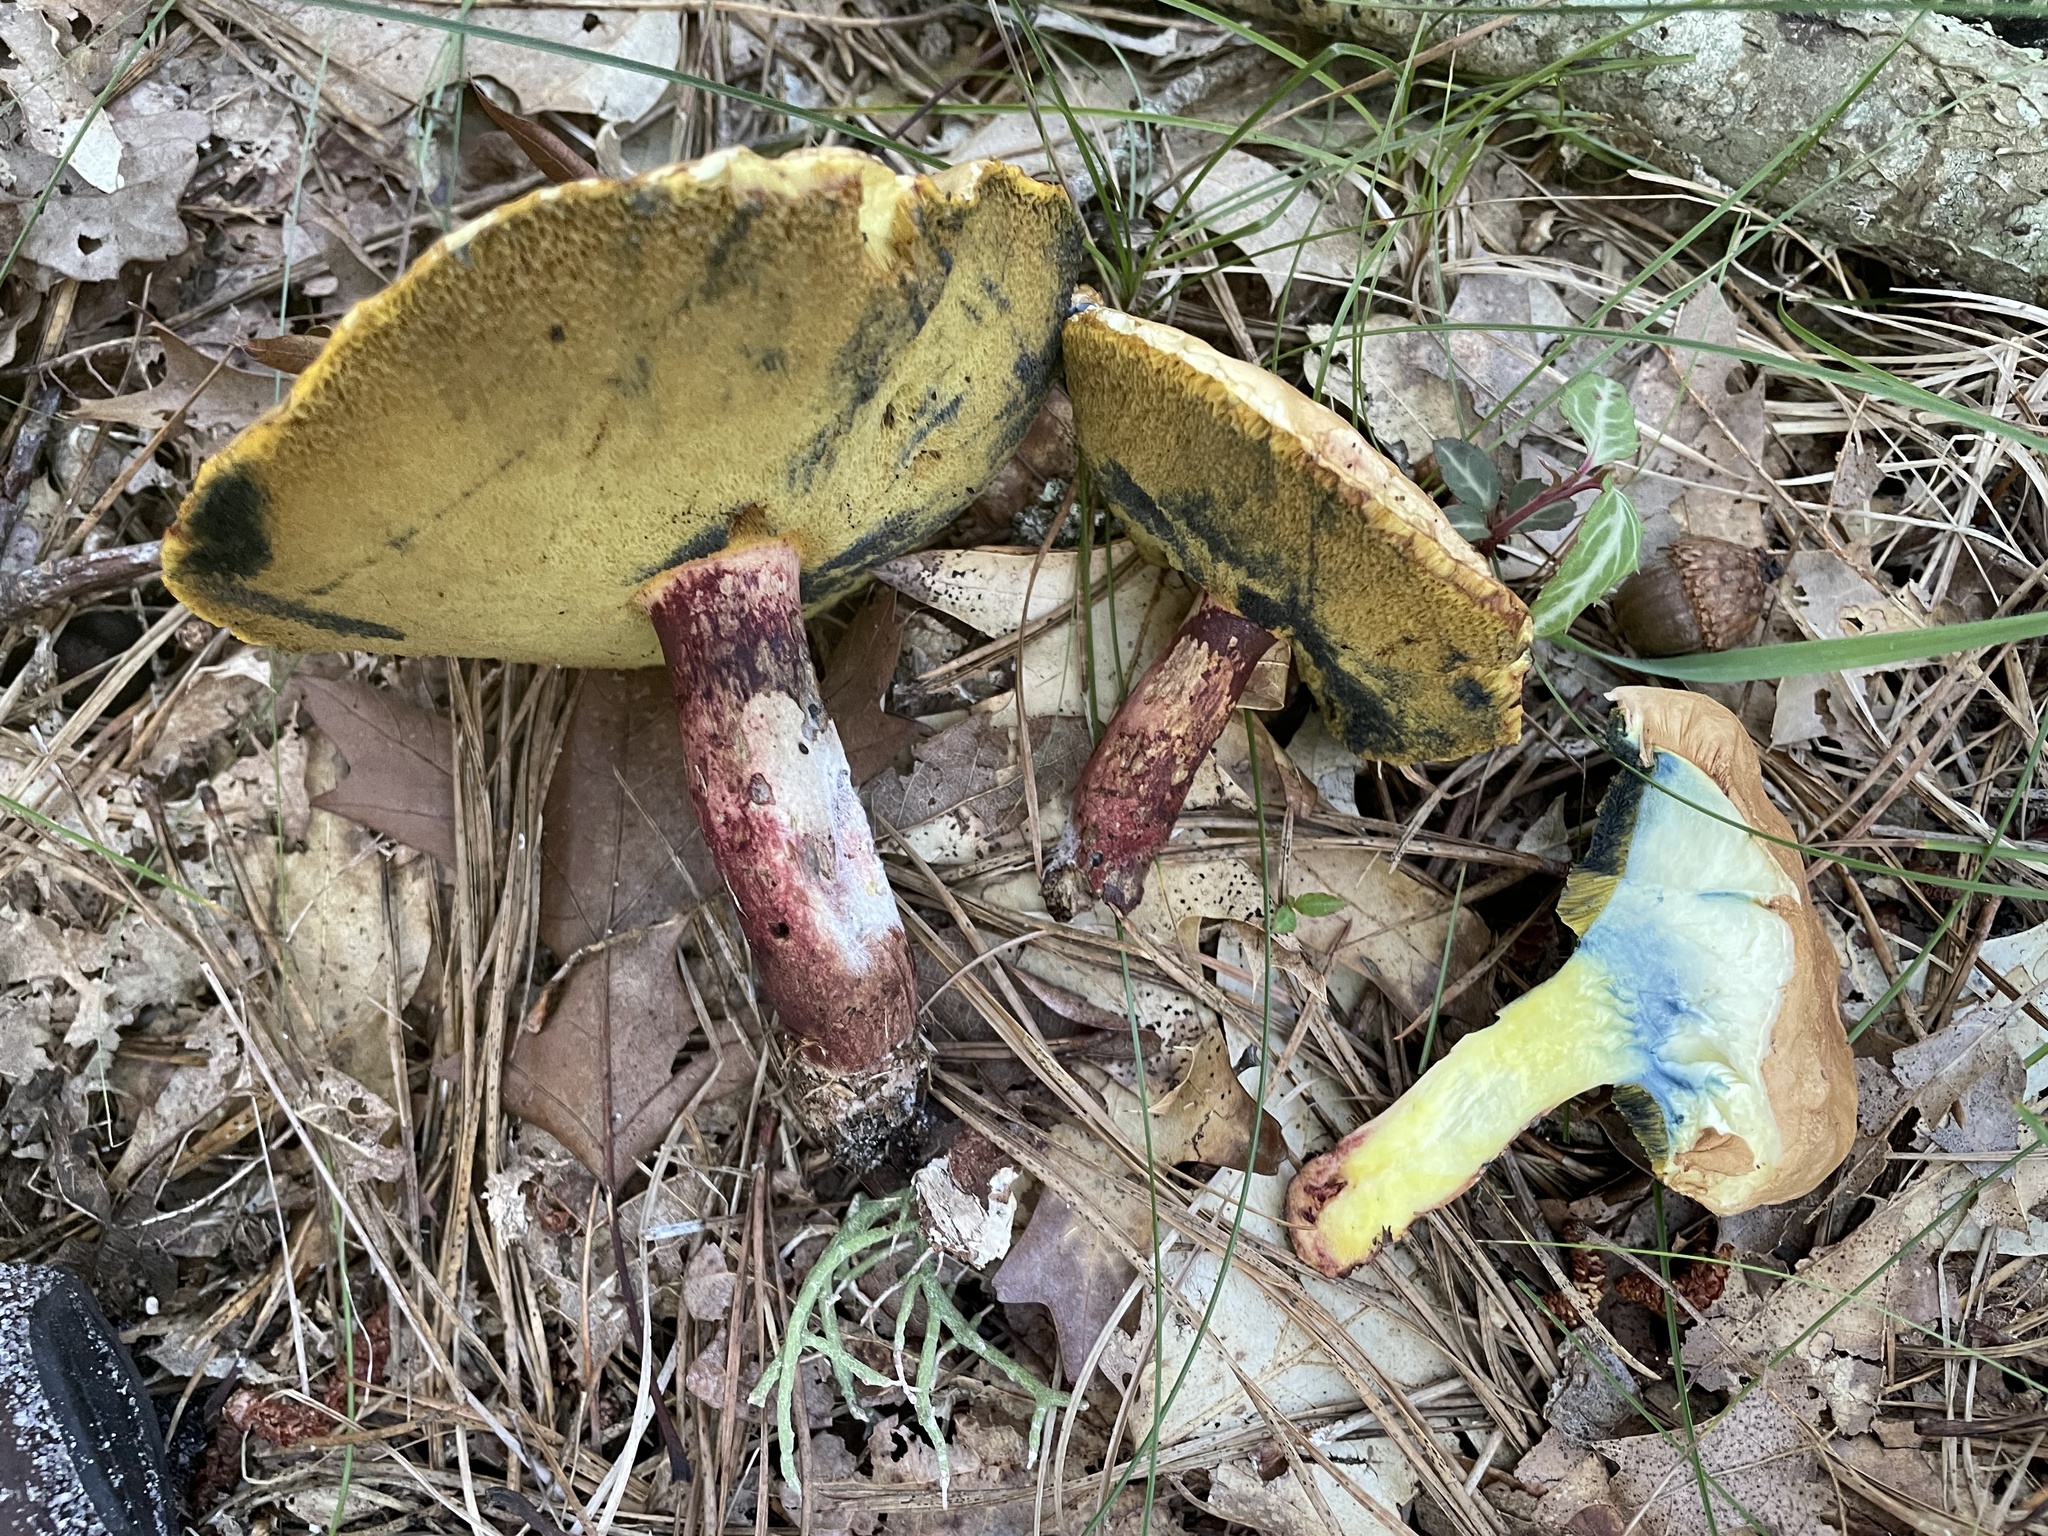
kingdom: Fungi
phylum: Basidiomycota
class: Agaricomycetes
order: Boletales
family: Boletaceae
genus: Baorangia
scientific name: Baorangia bicolor
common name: Two-colored bolete
